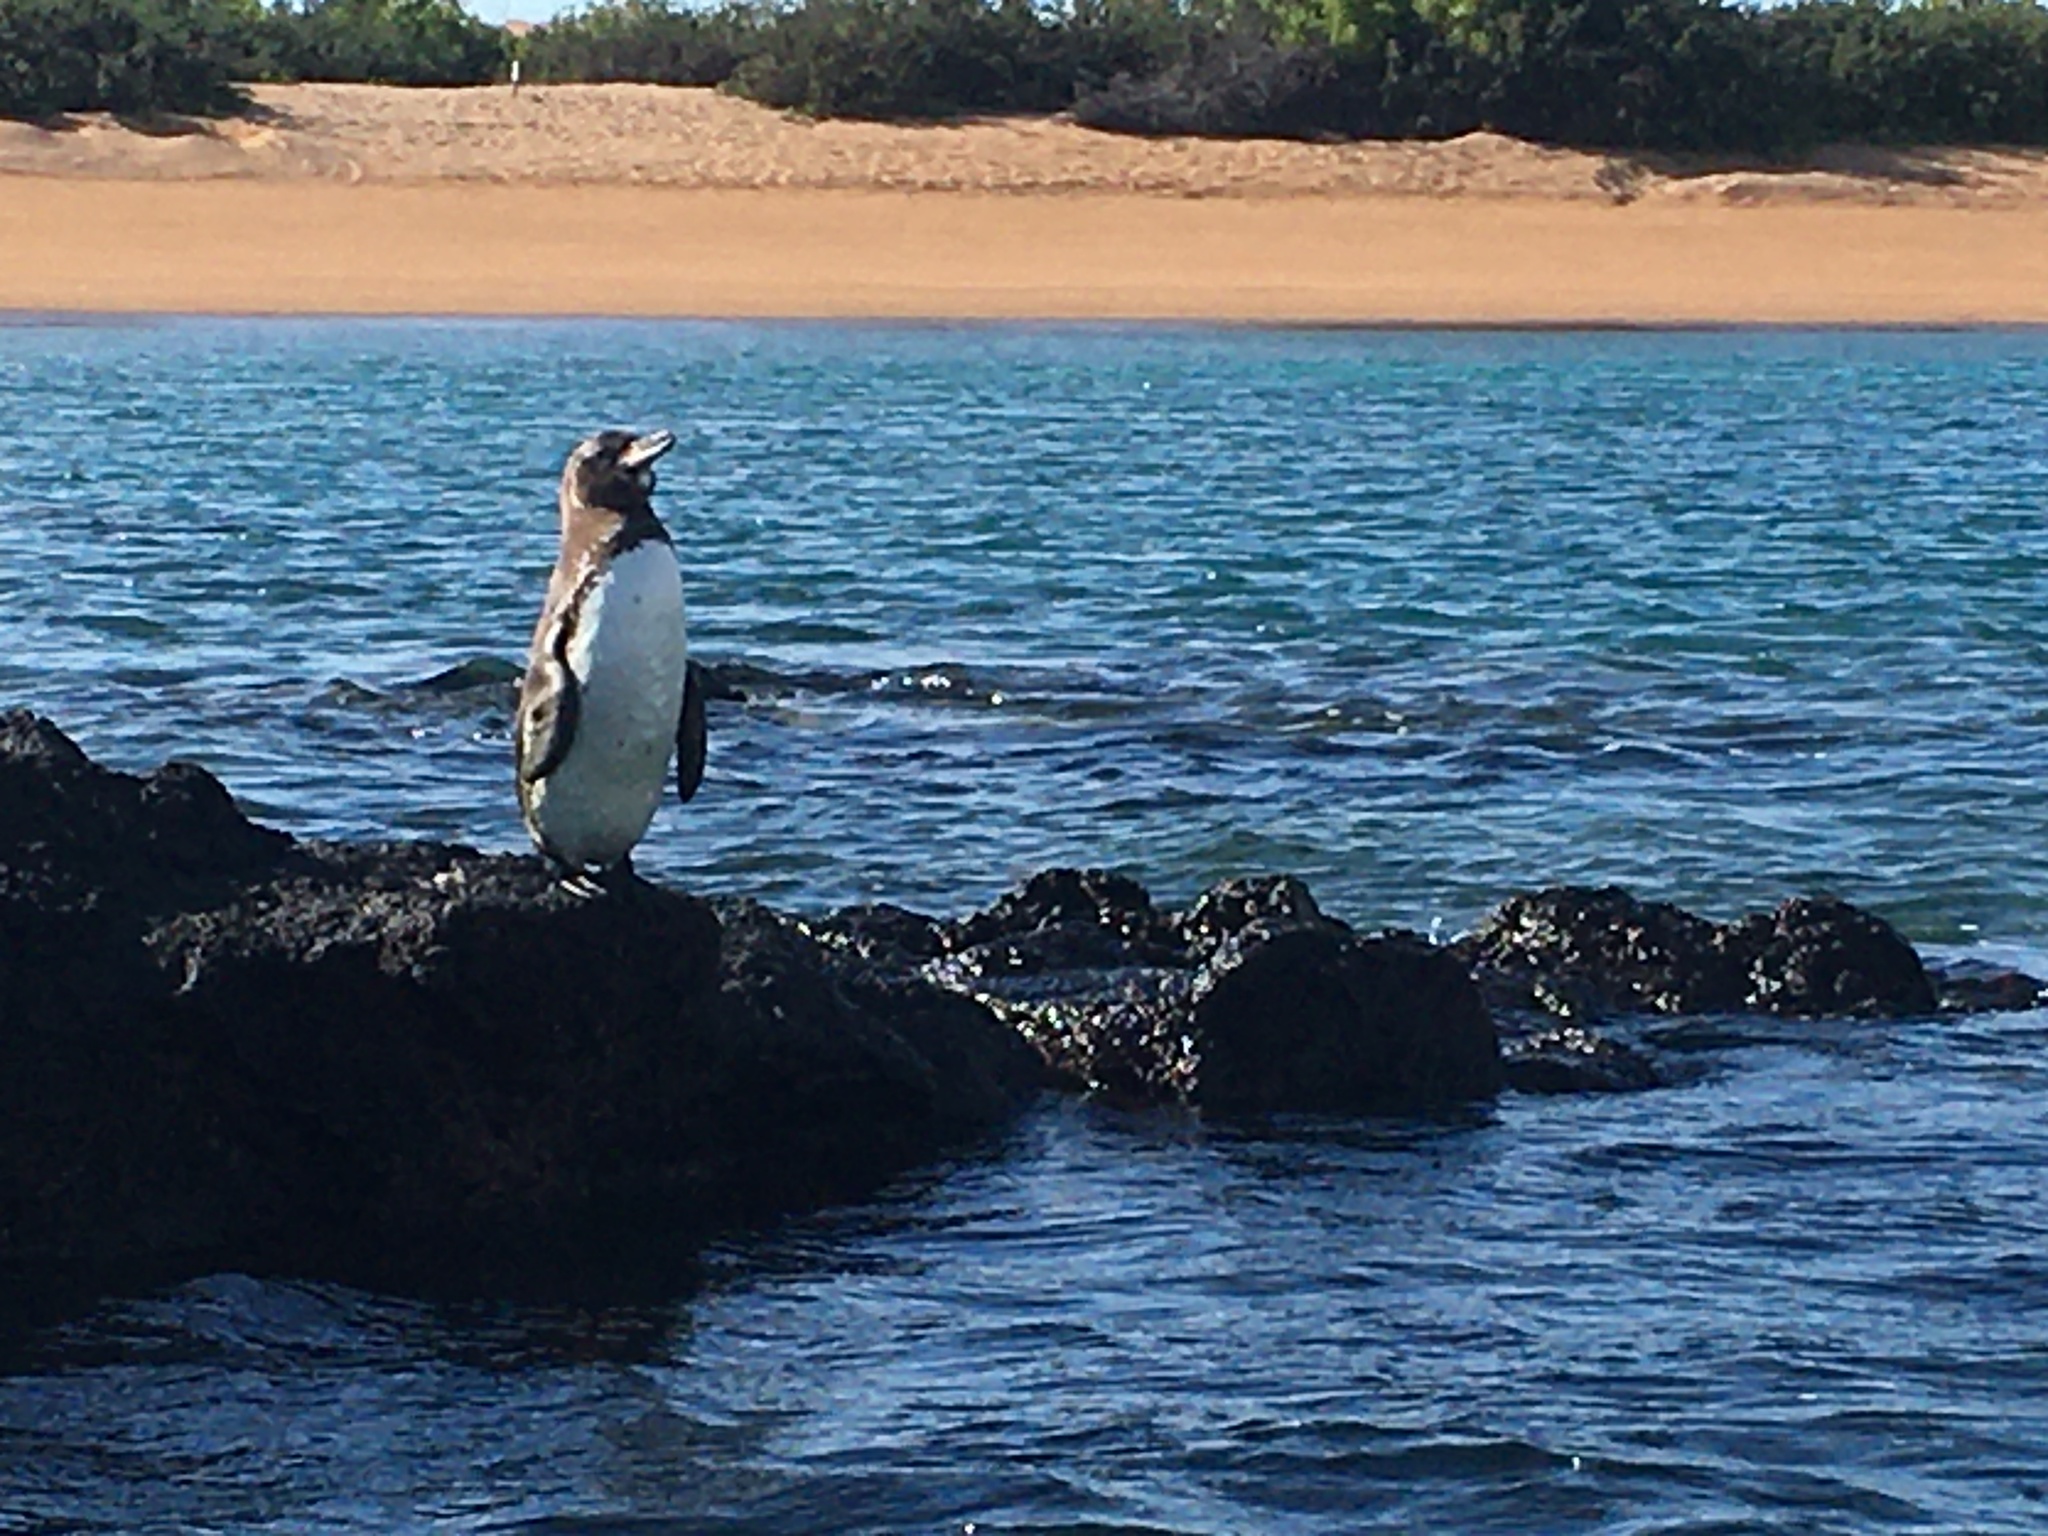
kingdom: Animalia
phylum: Chordata
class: Aves
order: Sphenisciformes
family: Spheniscidae
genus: Spheniscus
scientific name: Spheniscus mendiculus
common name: Galapagos penguin
